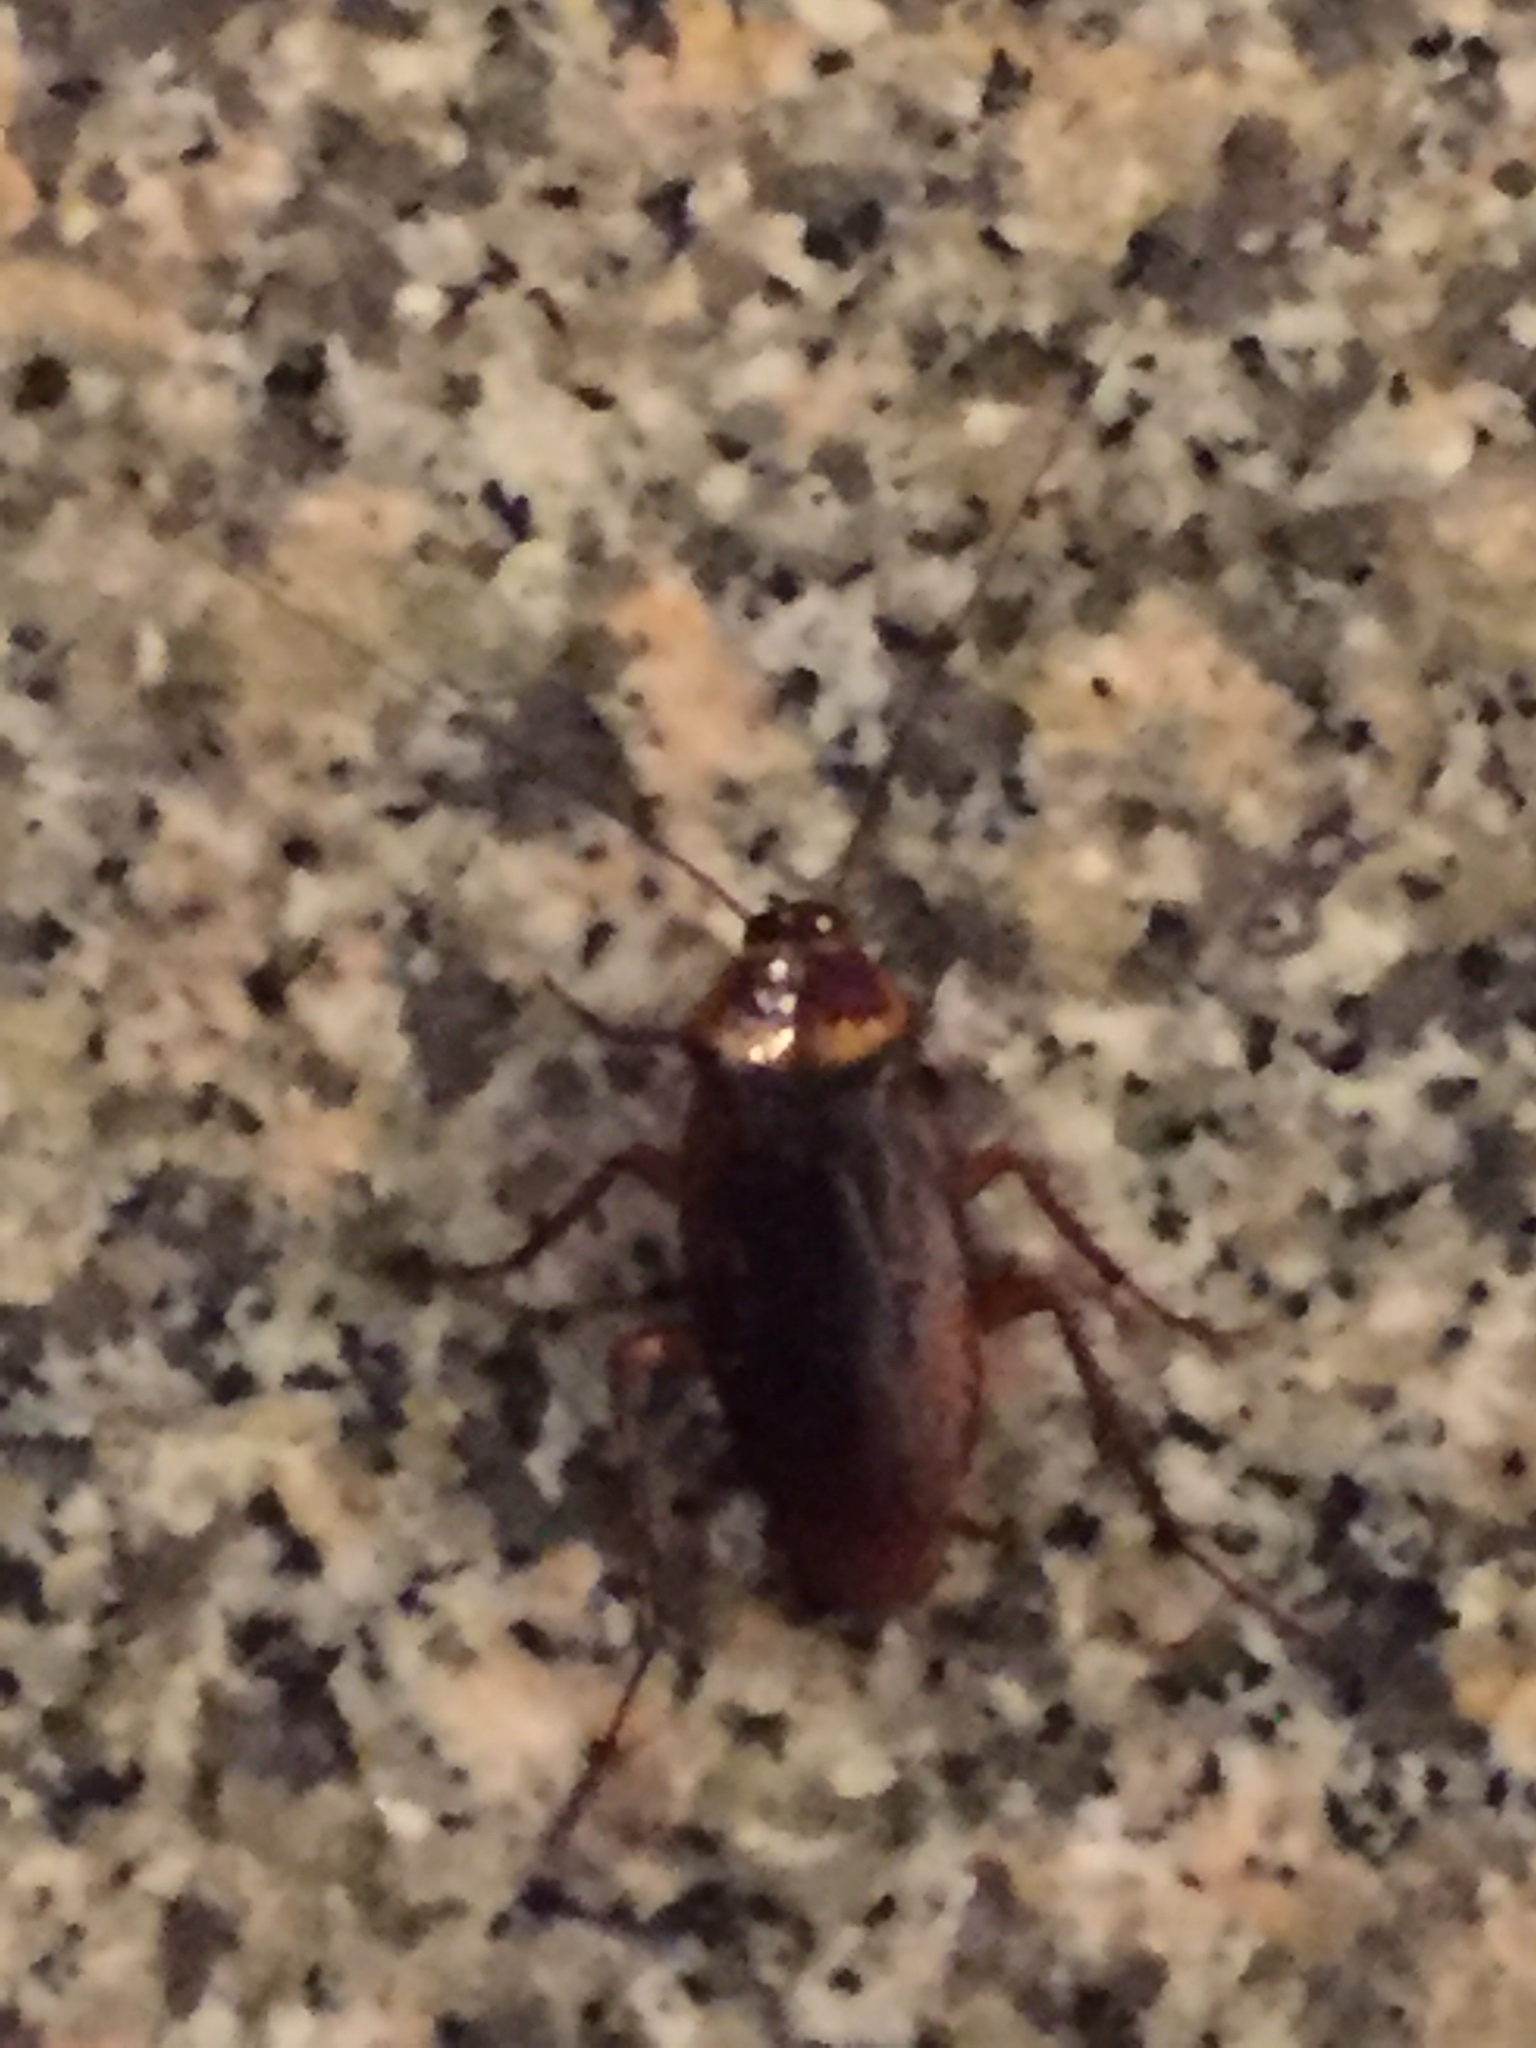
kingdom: Animalia
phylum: Arthropoda
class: Insecta
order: Blattodea
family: Blattidae
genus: Periplaneta
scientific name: Periplaneta americana
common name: American cockroach
